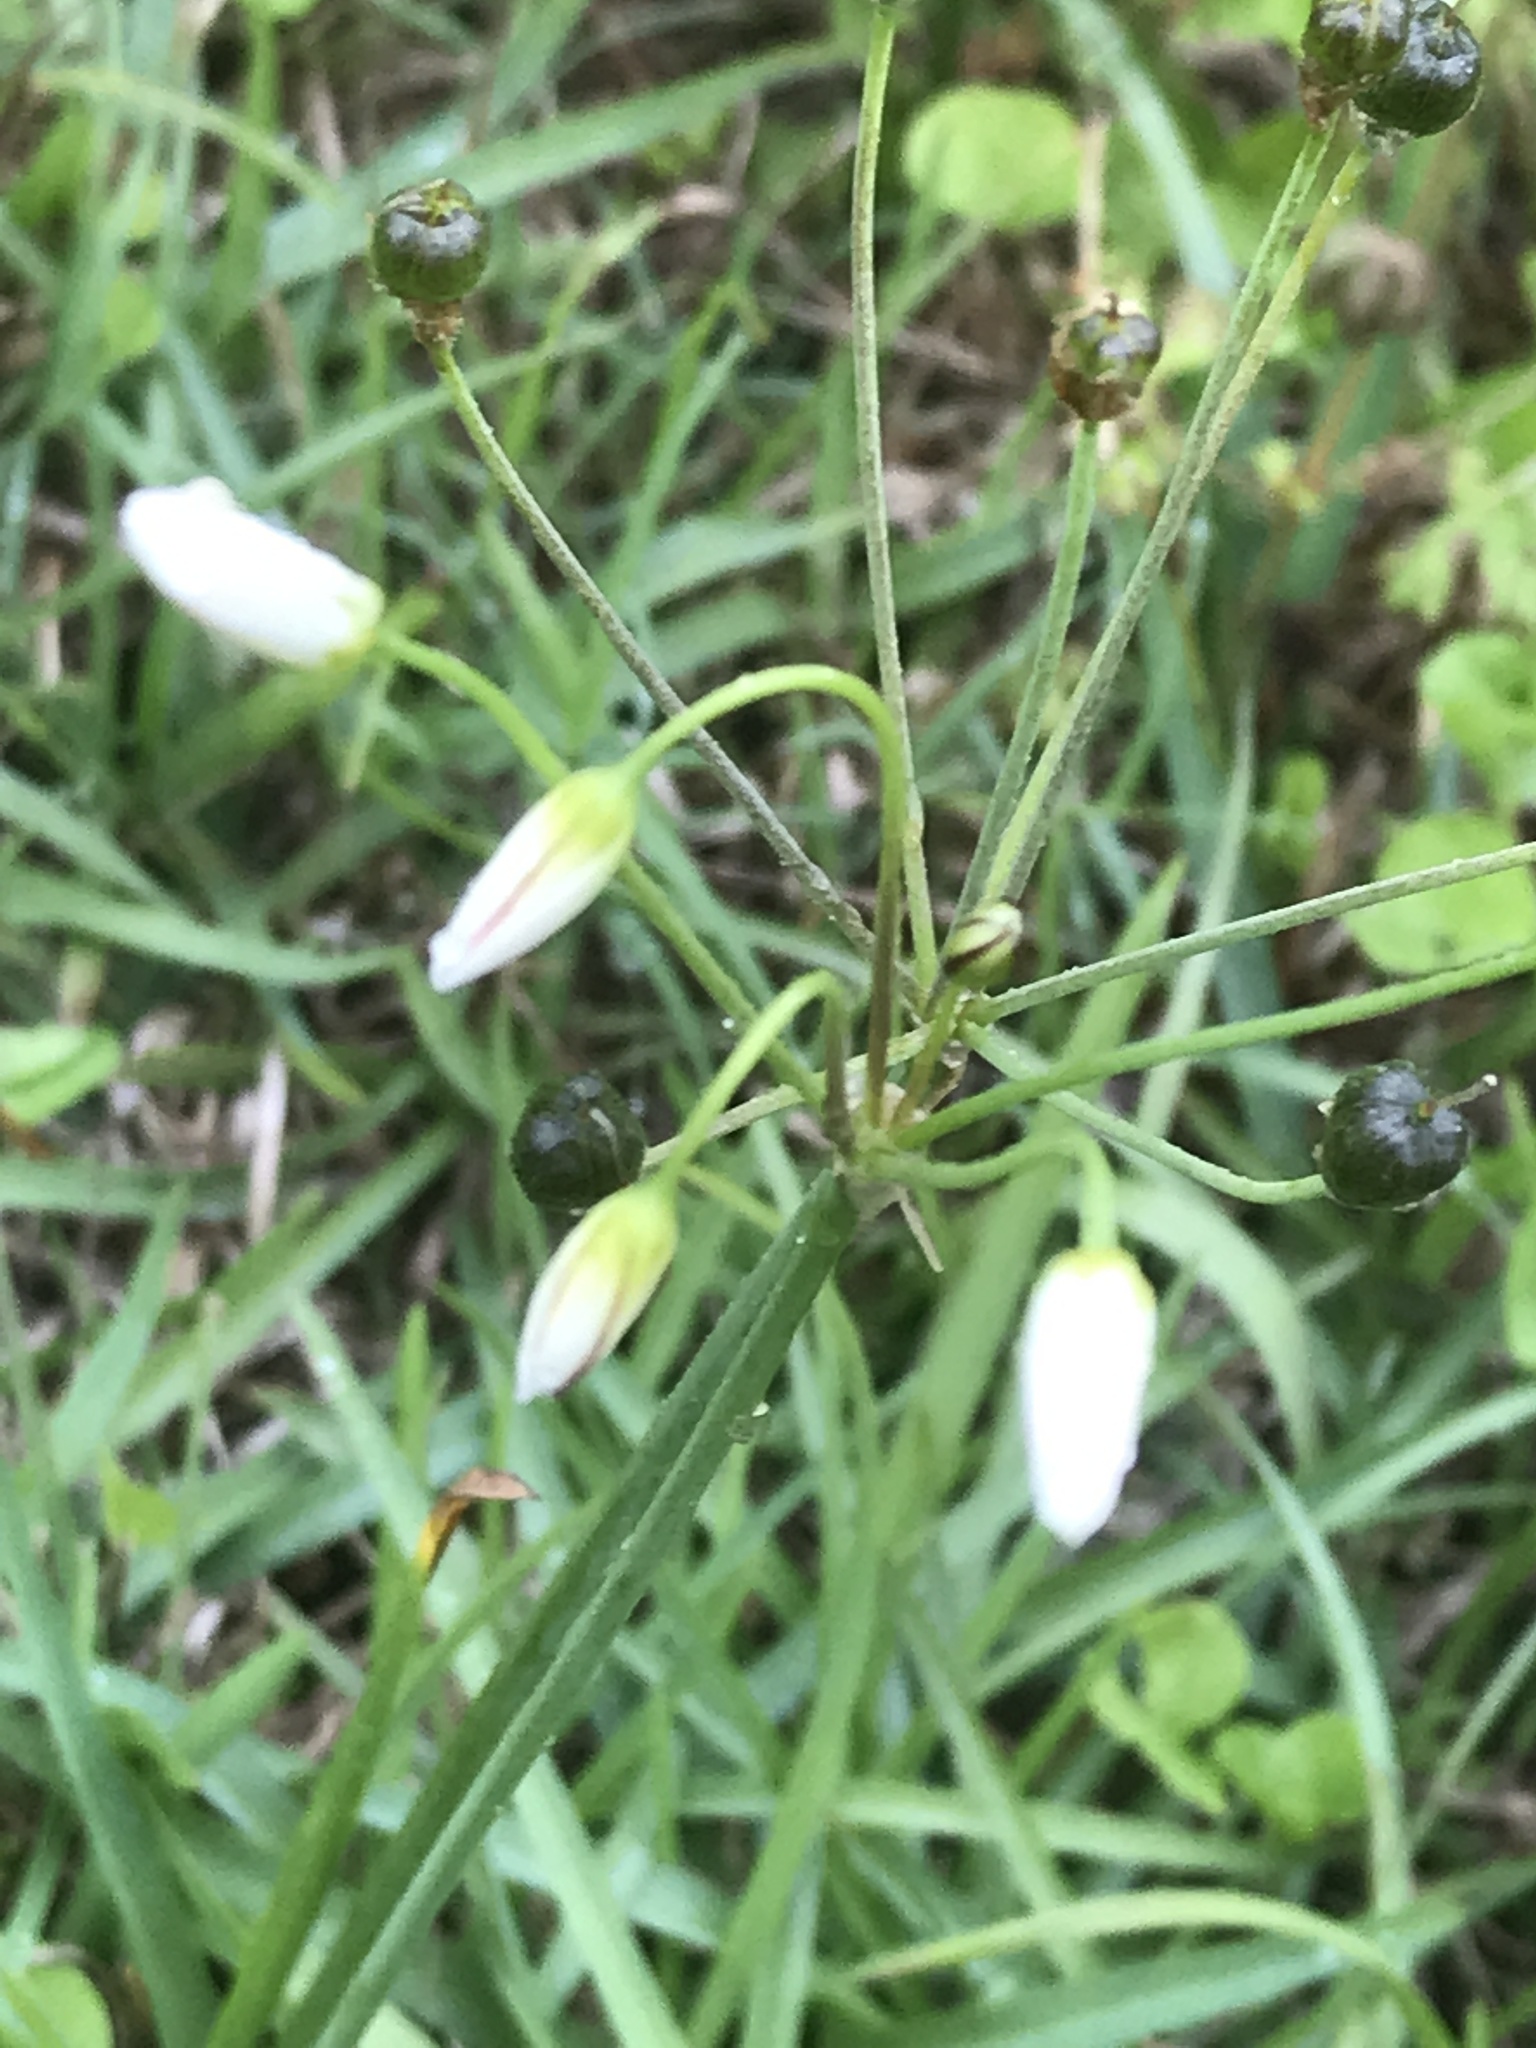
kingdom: Plantae
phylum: Tracheophyta
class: Liliopsida
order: Asparagales
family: Amaryllidaceae
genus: Nothoscordum
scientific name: Nothoscordum bivalve
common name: Crow-poison
